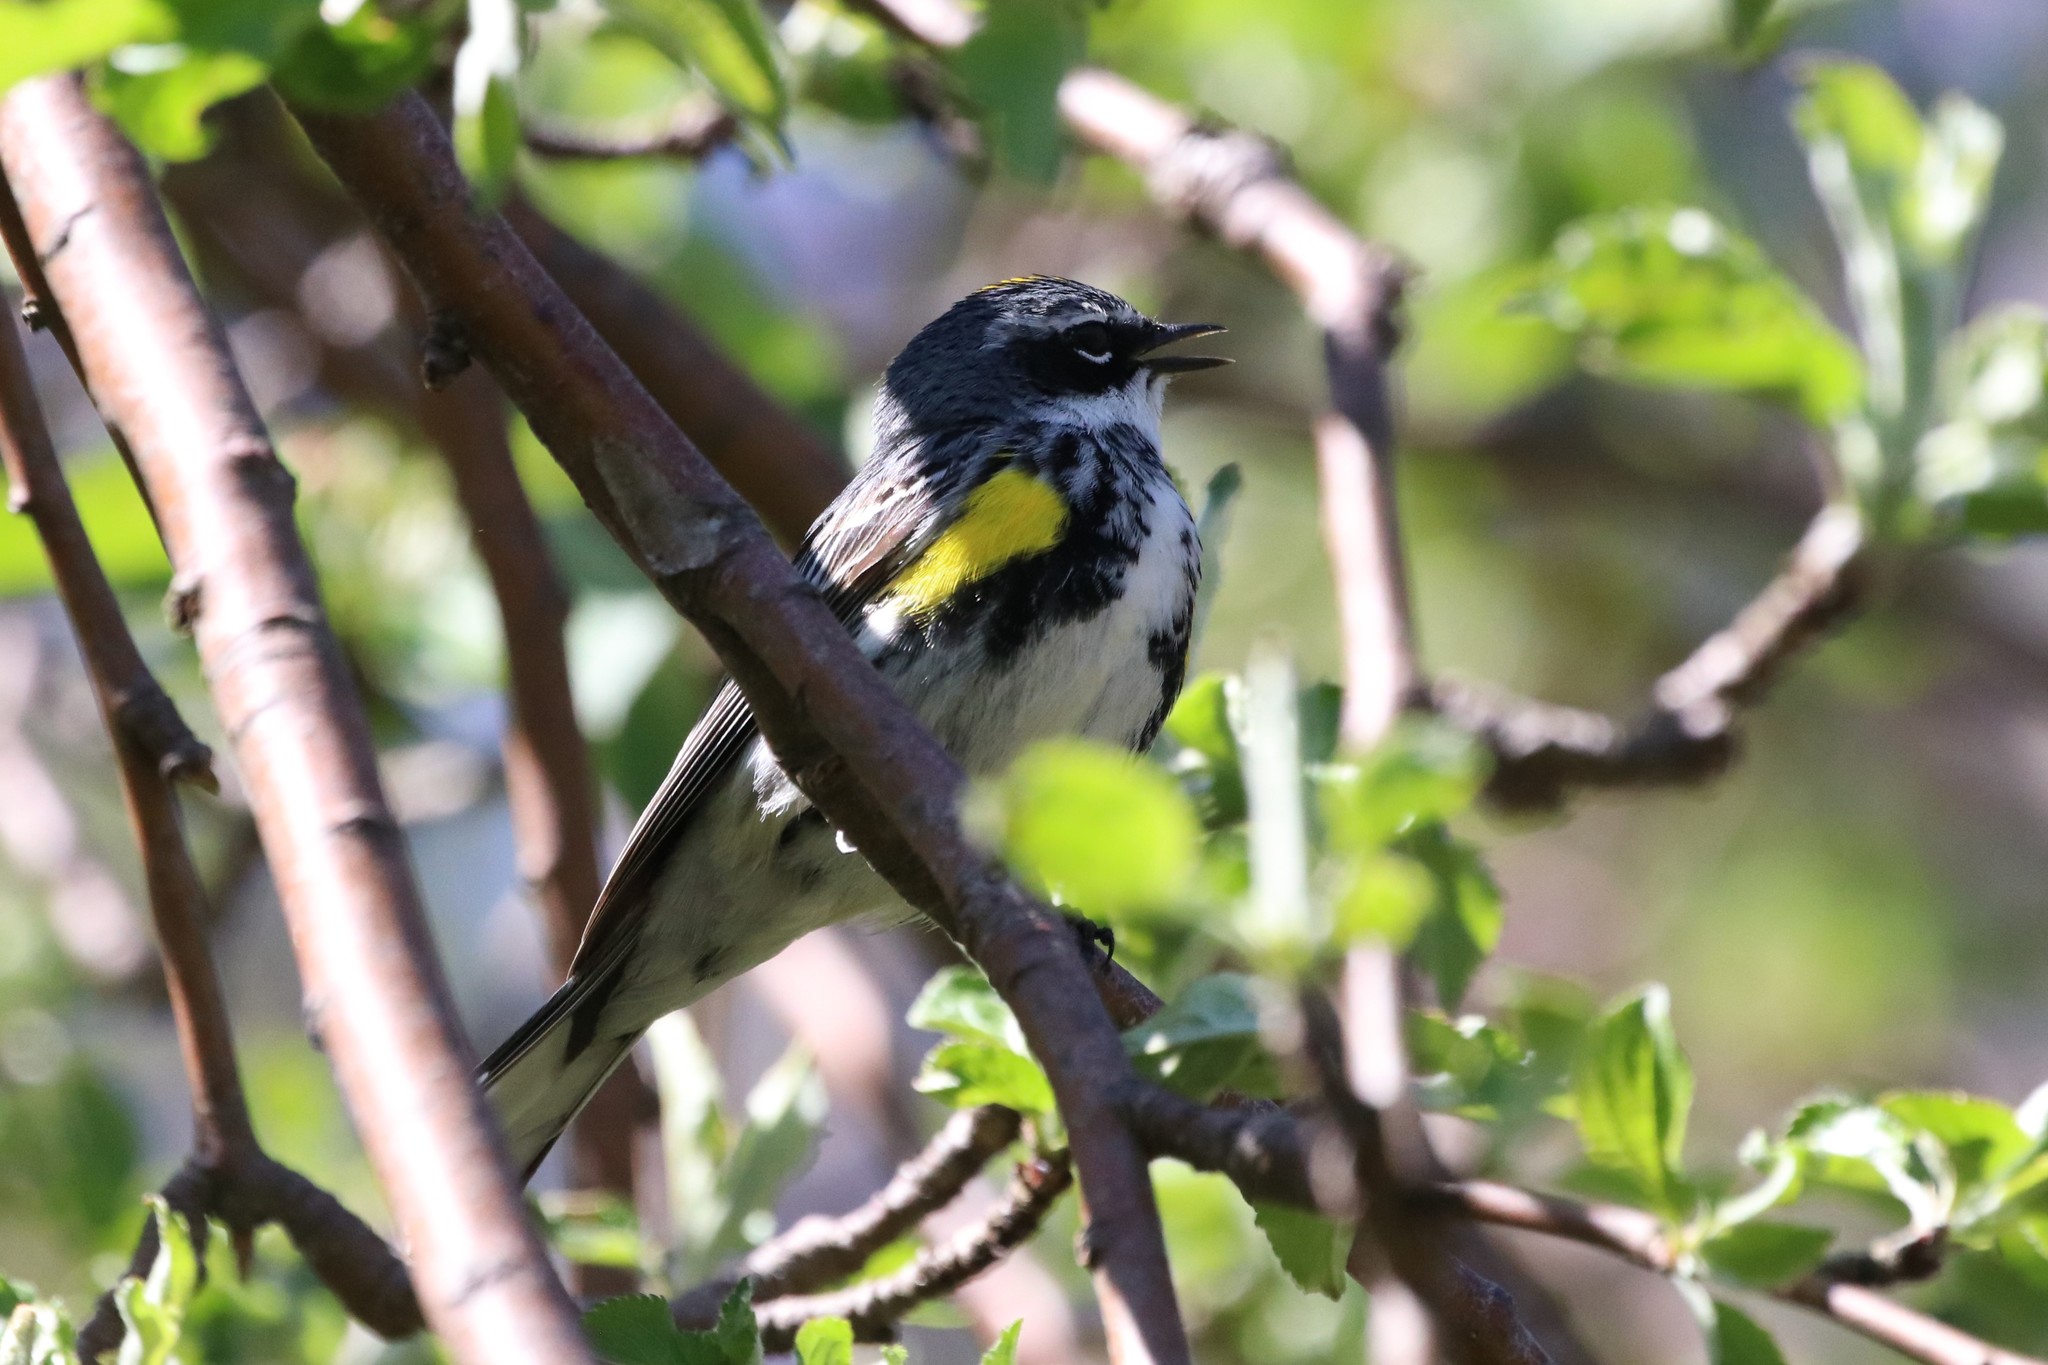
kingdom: Animalia
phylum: Chordata
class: Aves
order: Passeriformes
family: Parulidae
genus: Setophaga
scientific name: Setophaga coronata
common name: Myrtle warbler
